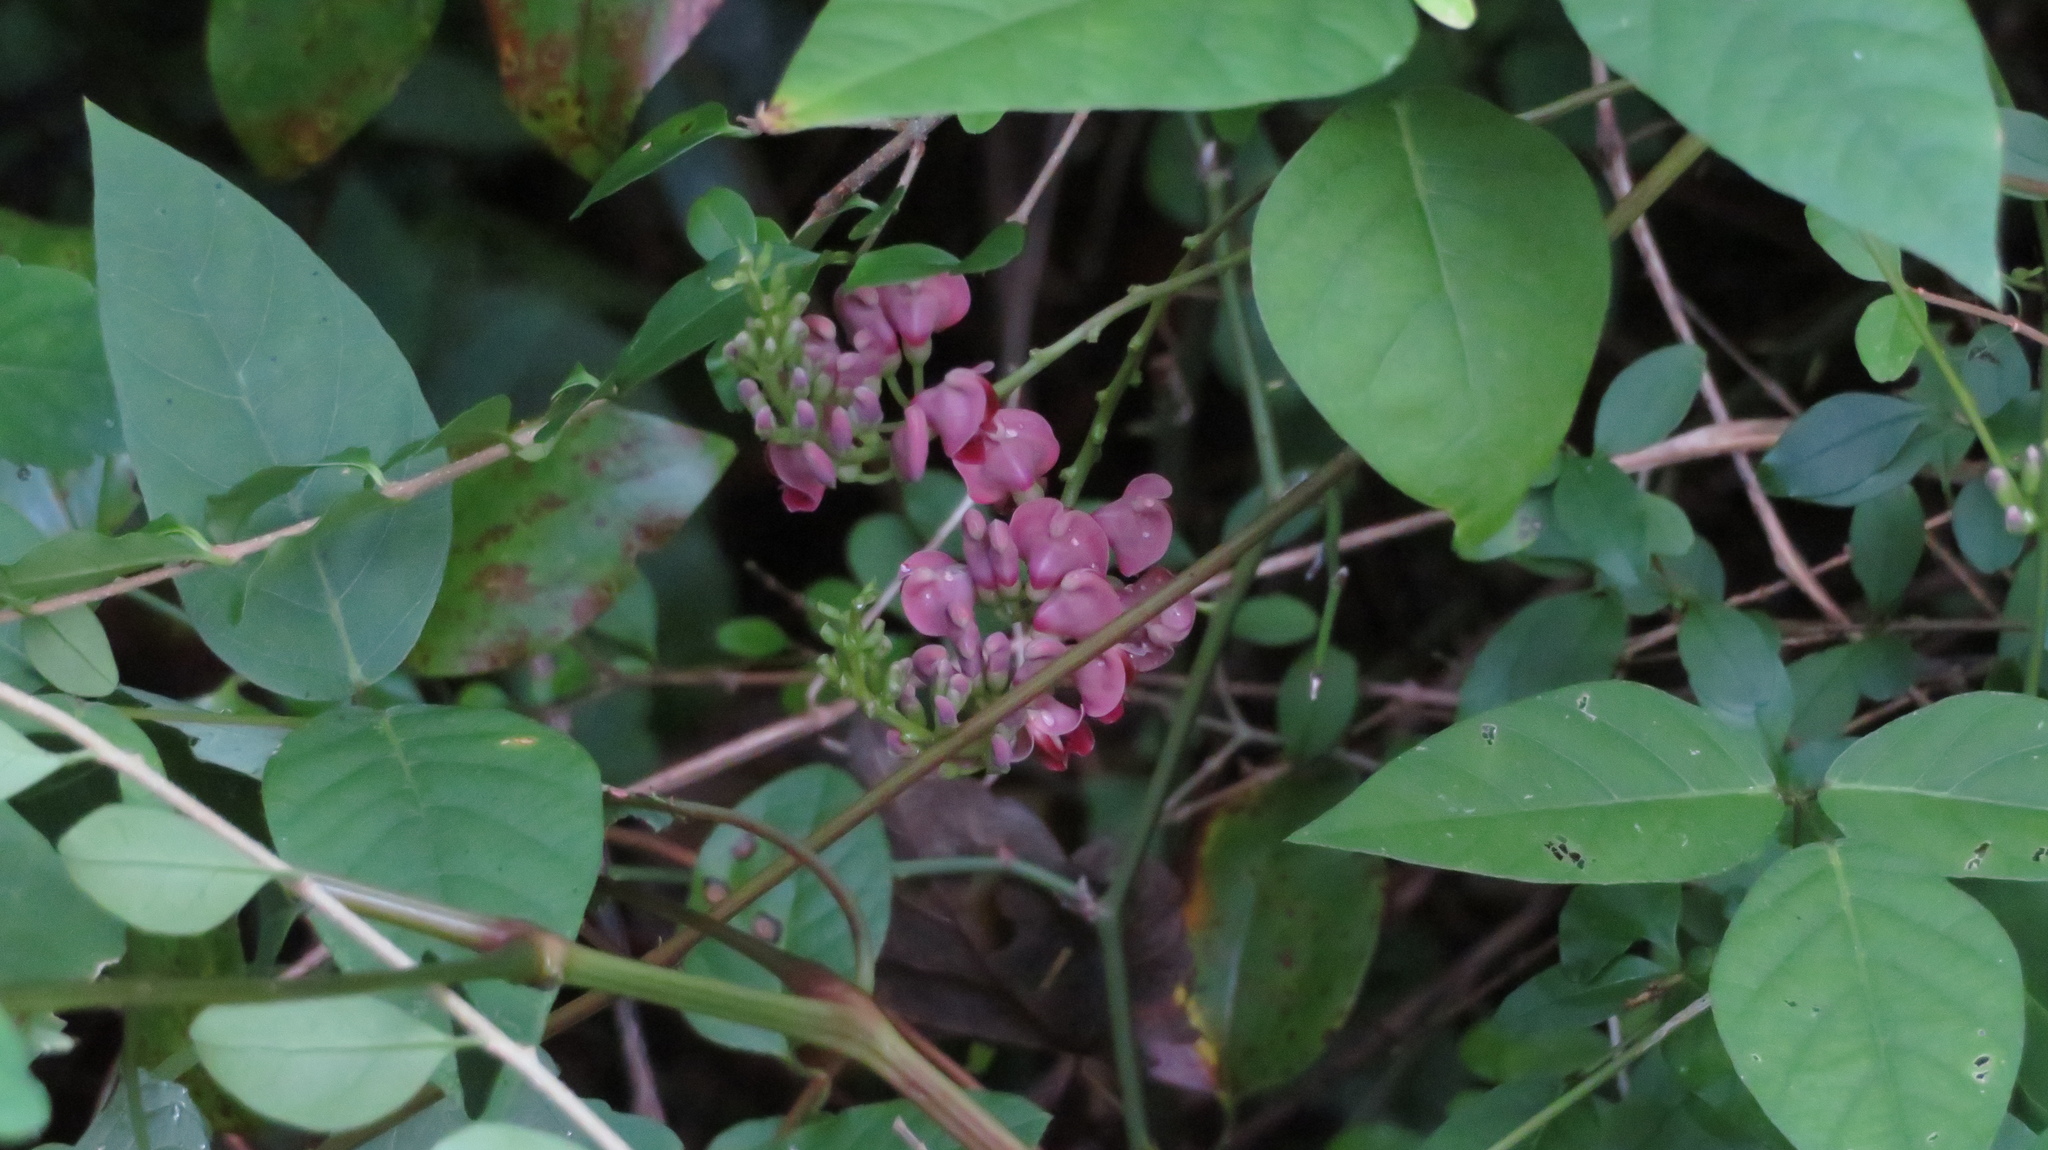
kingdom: Plantae
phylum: Tracheophyta
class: Magnoliopsida
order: Fabales
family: Fabaceae
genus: Apios
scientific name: Apios americana
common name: American potato-bean
